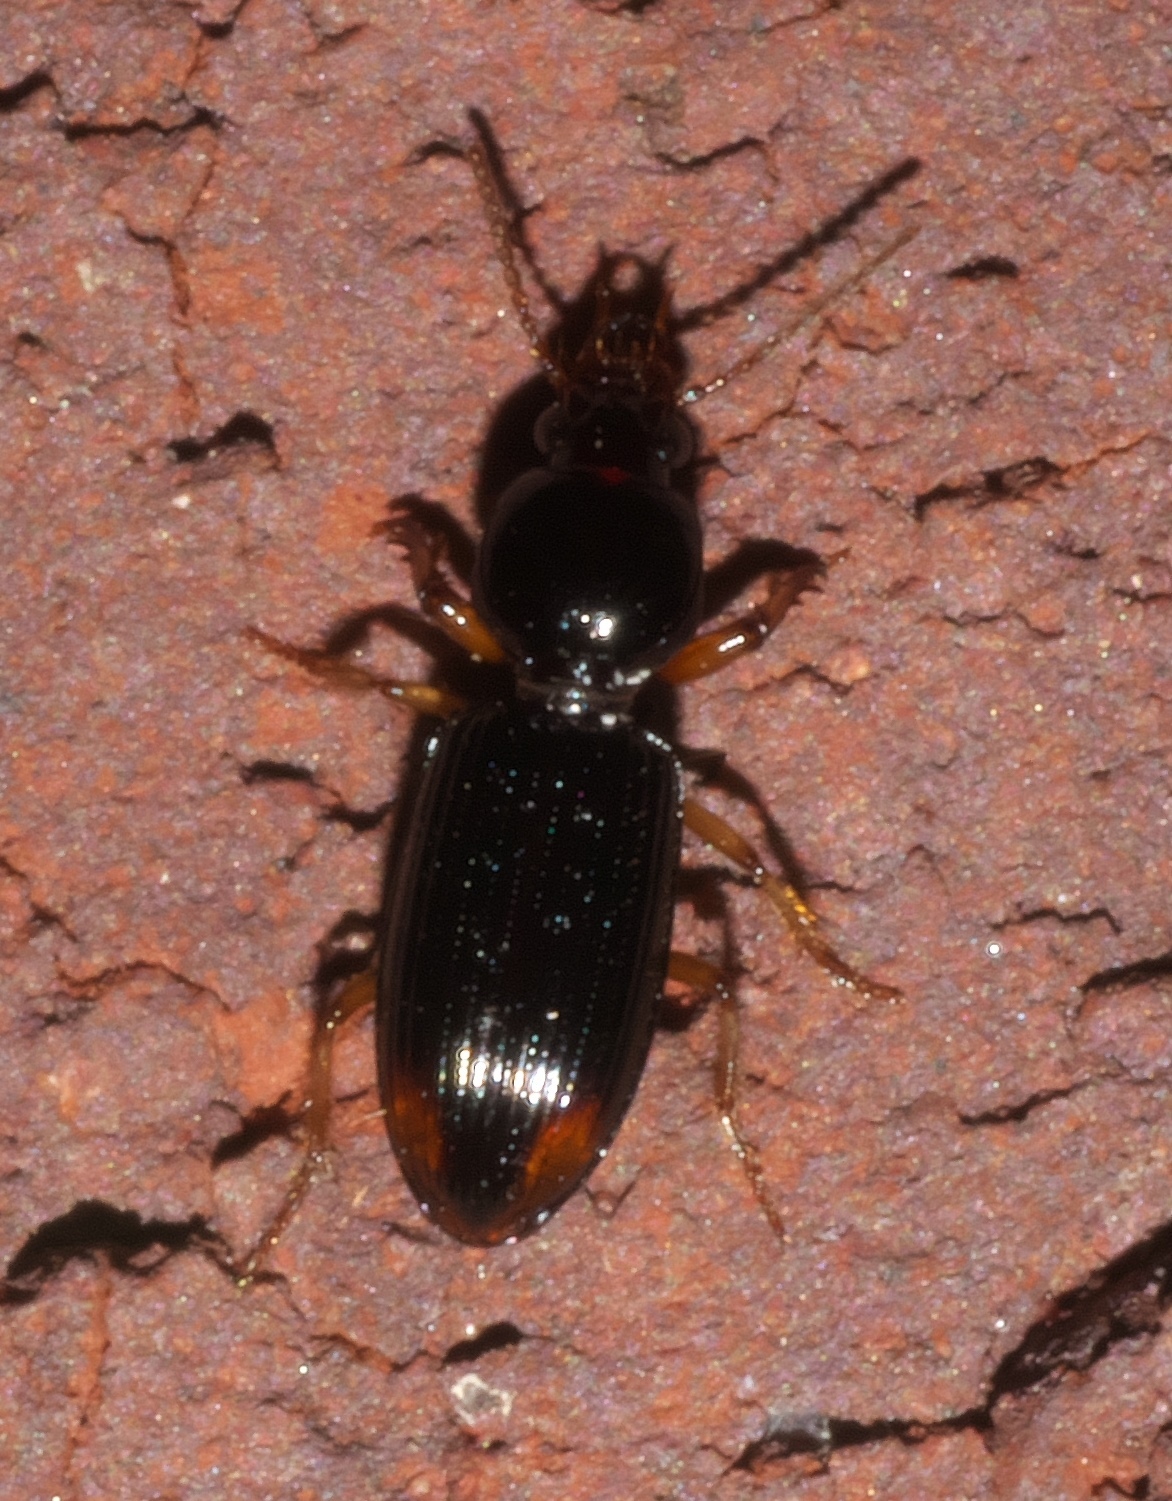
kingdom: Animalia
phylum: Arthropoda
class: Insecta
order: Coleoptera
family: Carabidae
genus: Aspidoglossa
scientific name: Aspidoglossa subangulata
